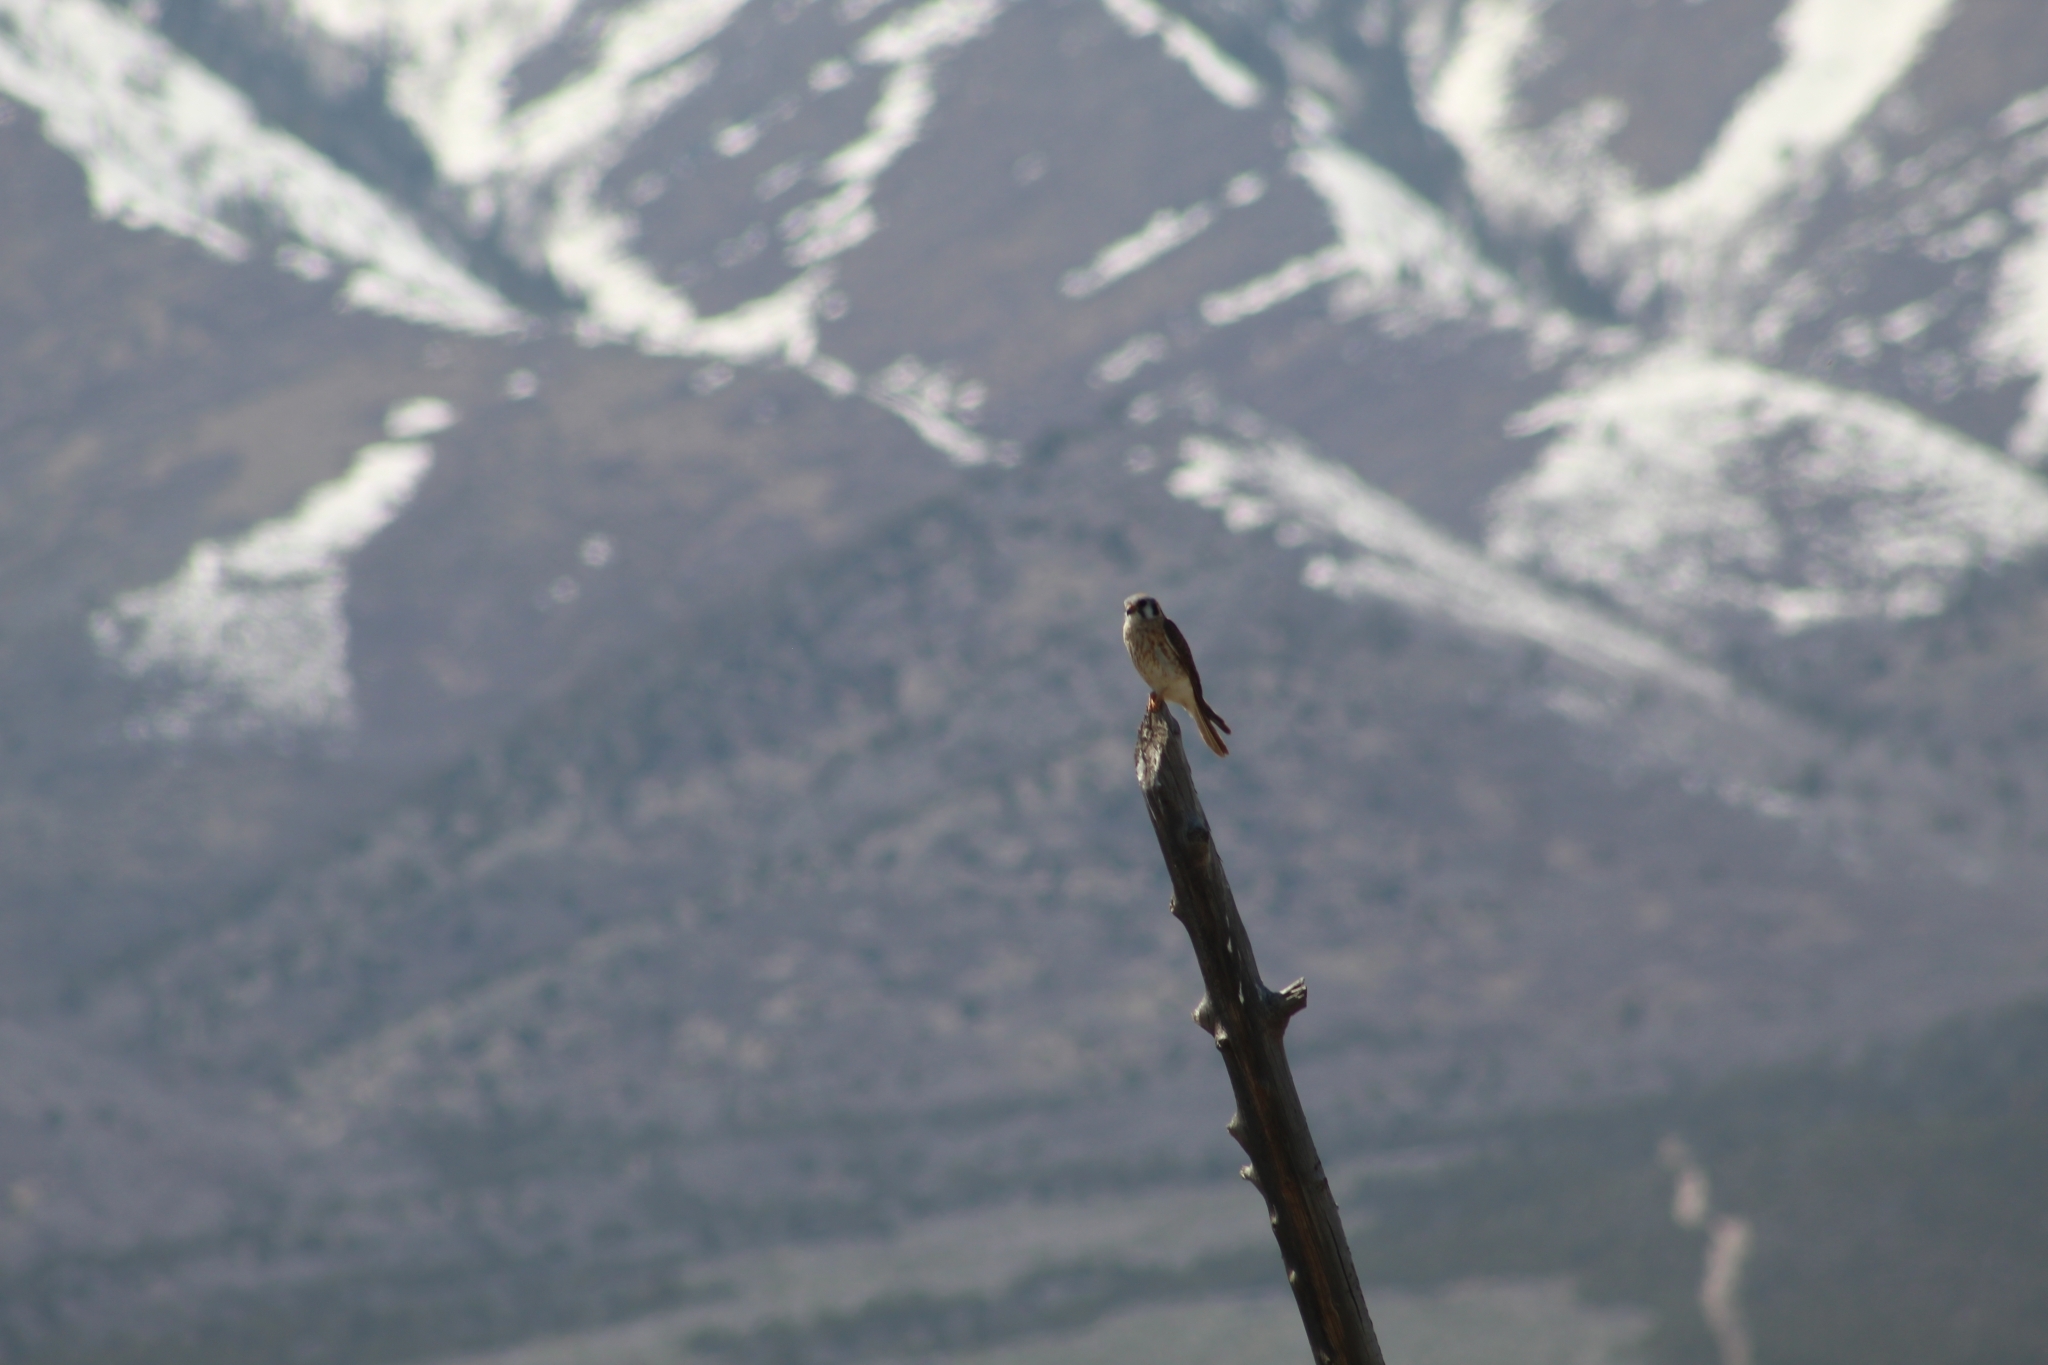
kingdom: Animalia
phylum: Chordata
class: Aves
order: Falconiformes
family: Falconidae
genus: Falco
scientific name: Falco sparverius
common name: American kestrel
